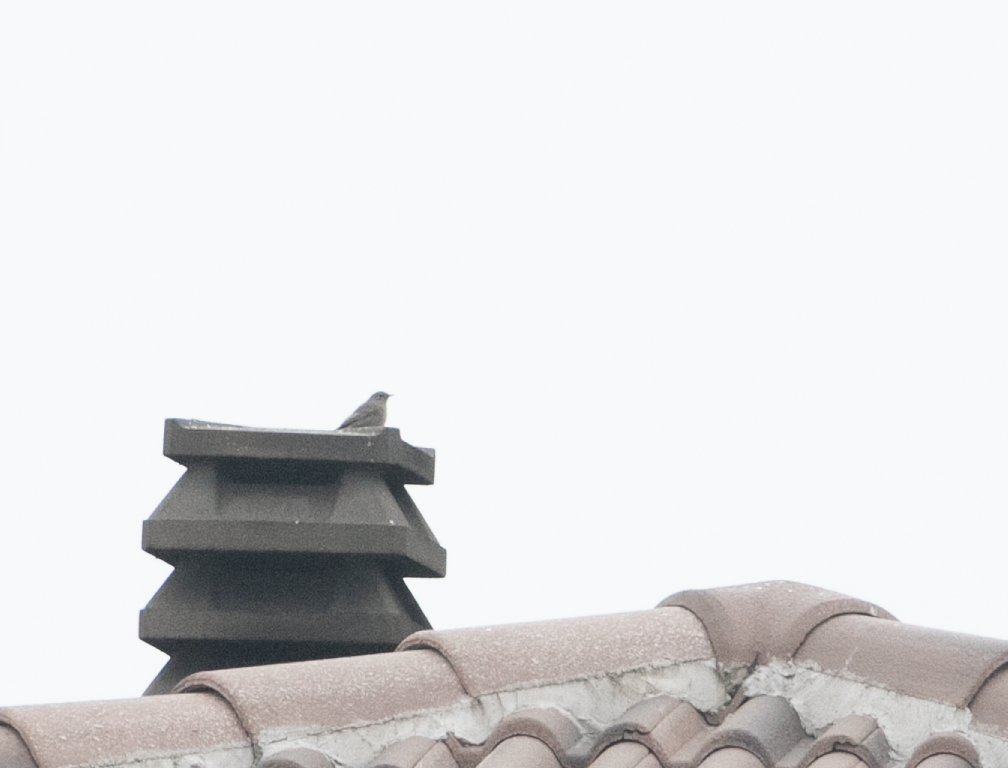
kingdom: Animalia
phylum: Chordata
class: Aves
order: Passeriformes
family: Muscicapidae
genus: Phoenicurus
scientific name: Phoenicurus ochruros
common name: Black redstart
